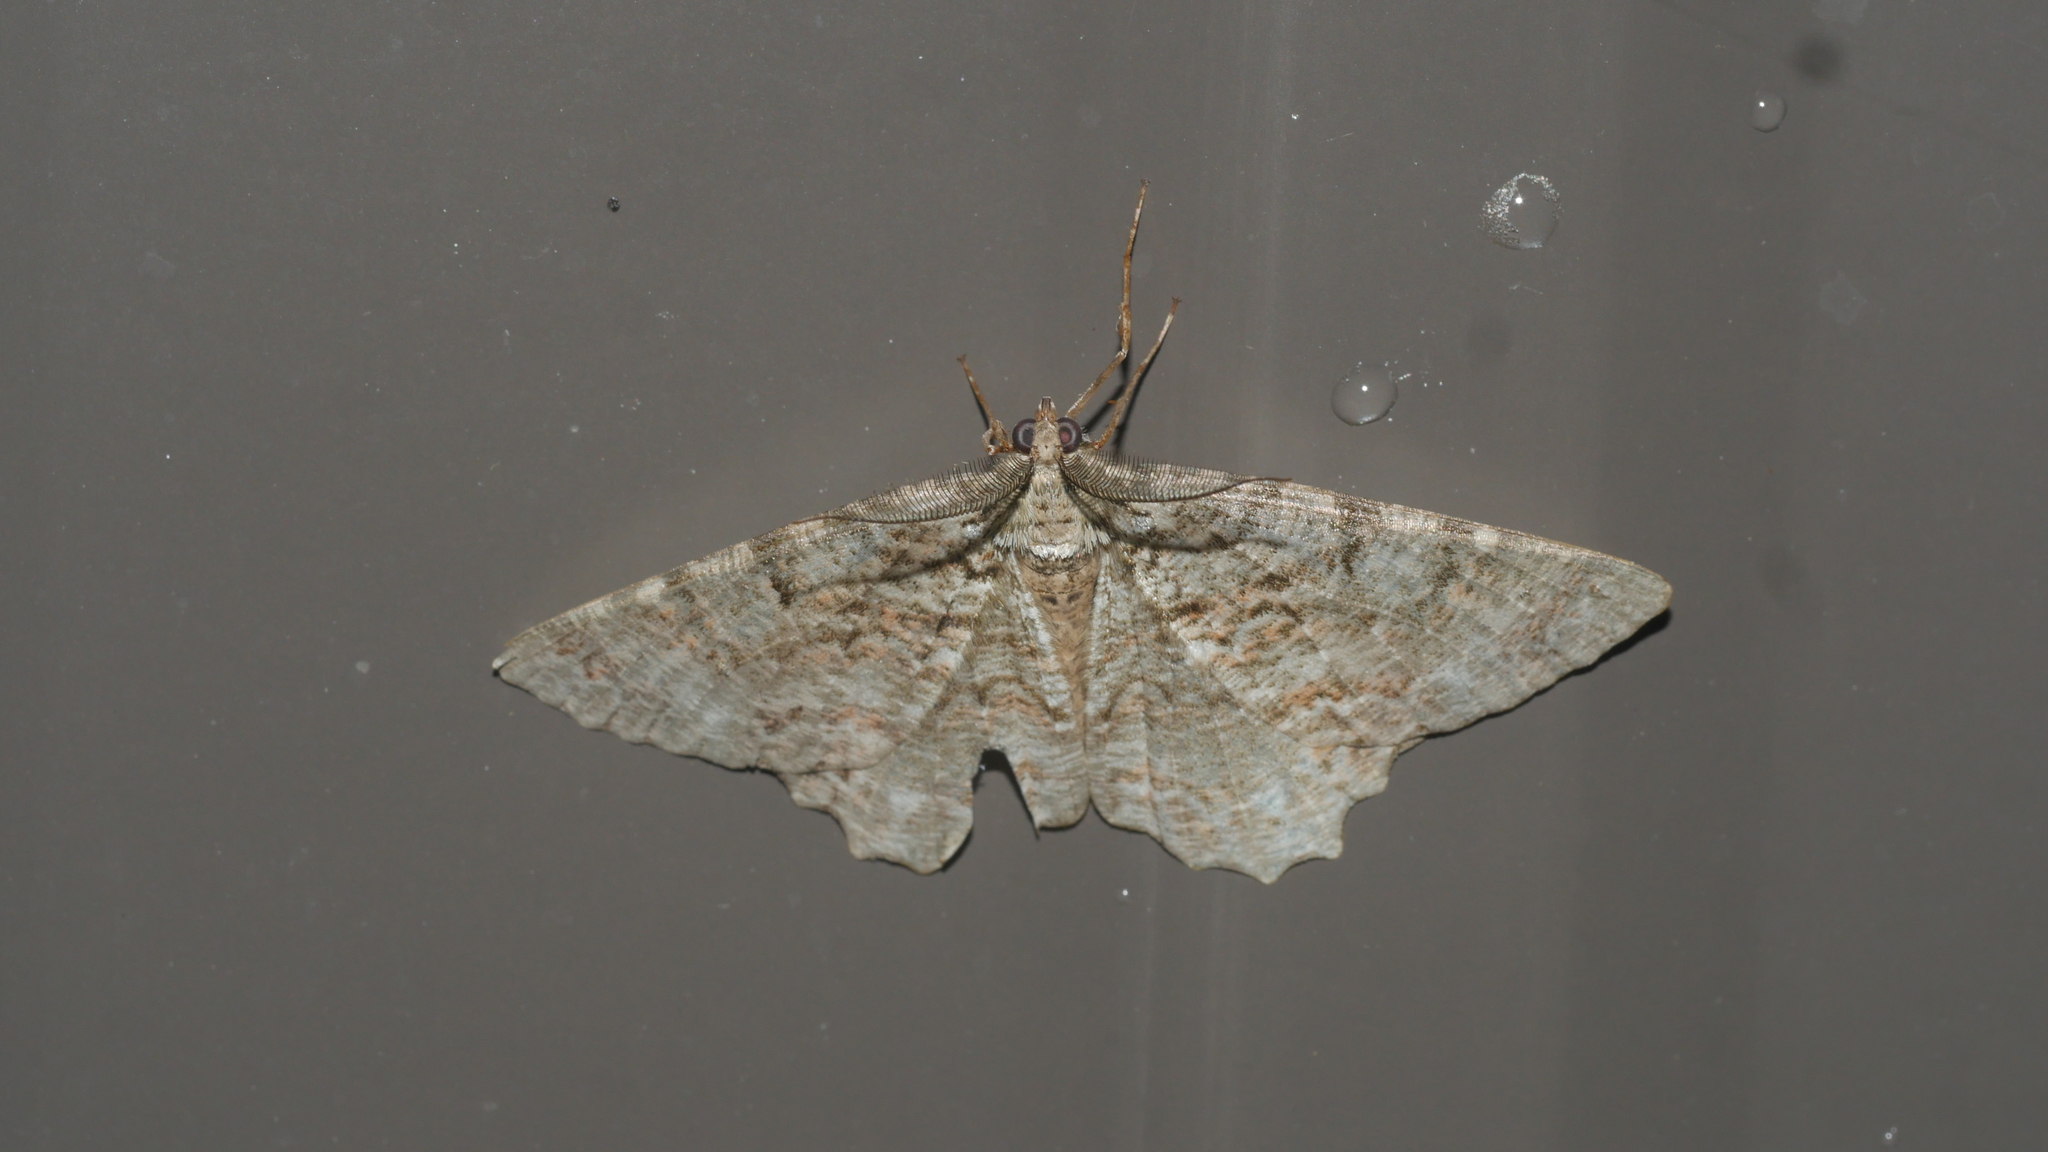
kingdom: Animalia
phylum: Arthropoda
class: Insecta
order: Lepidoptera
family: Geometridae
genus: Epimecis
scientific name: Epimecis hortaria
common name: Tulip-tree beauty
